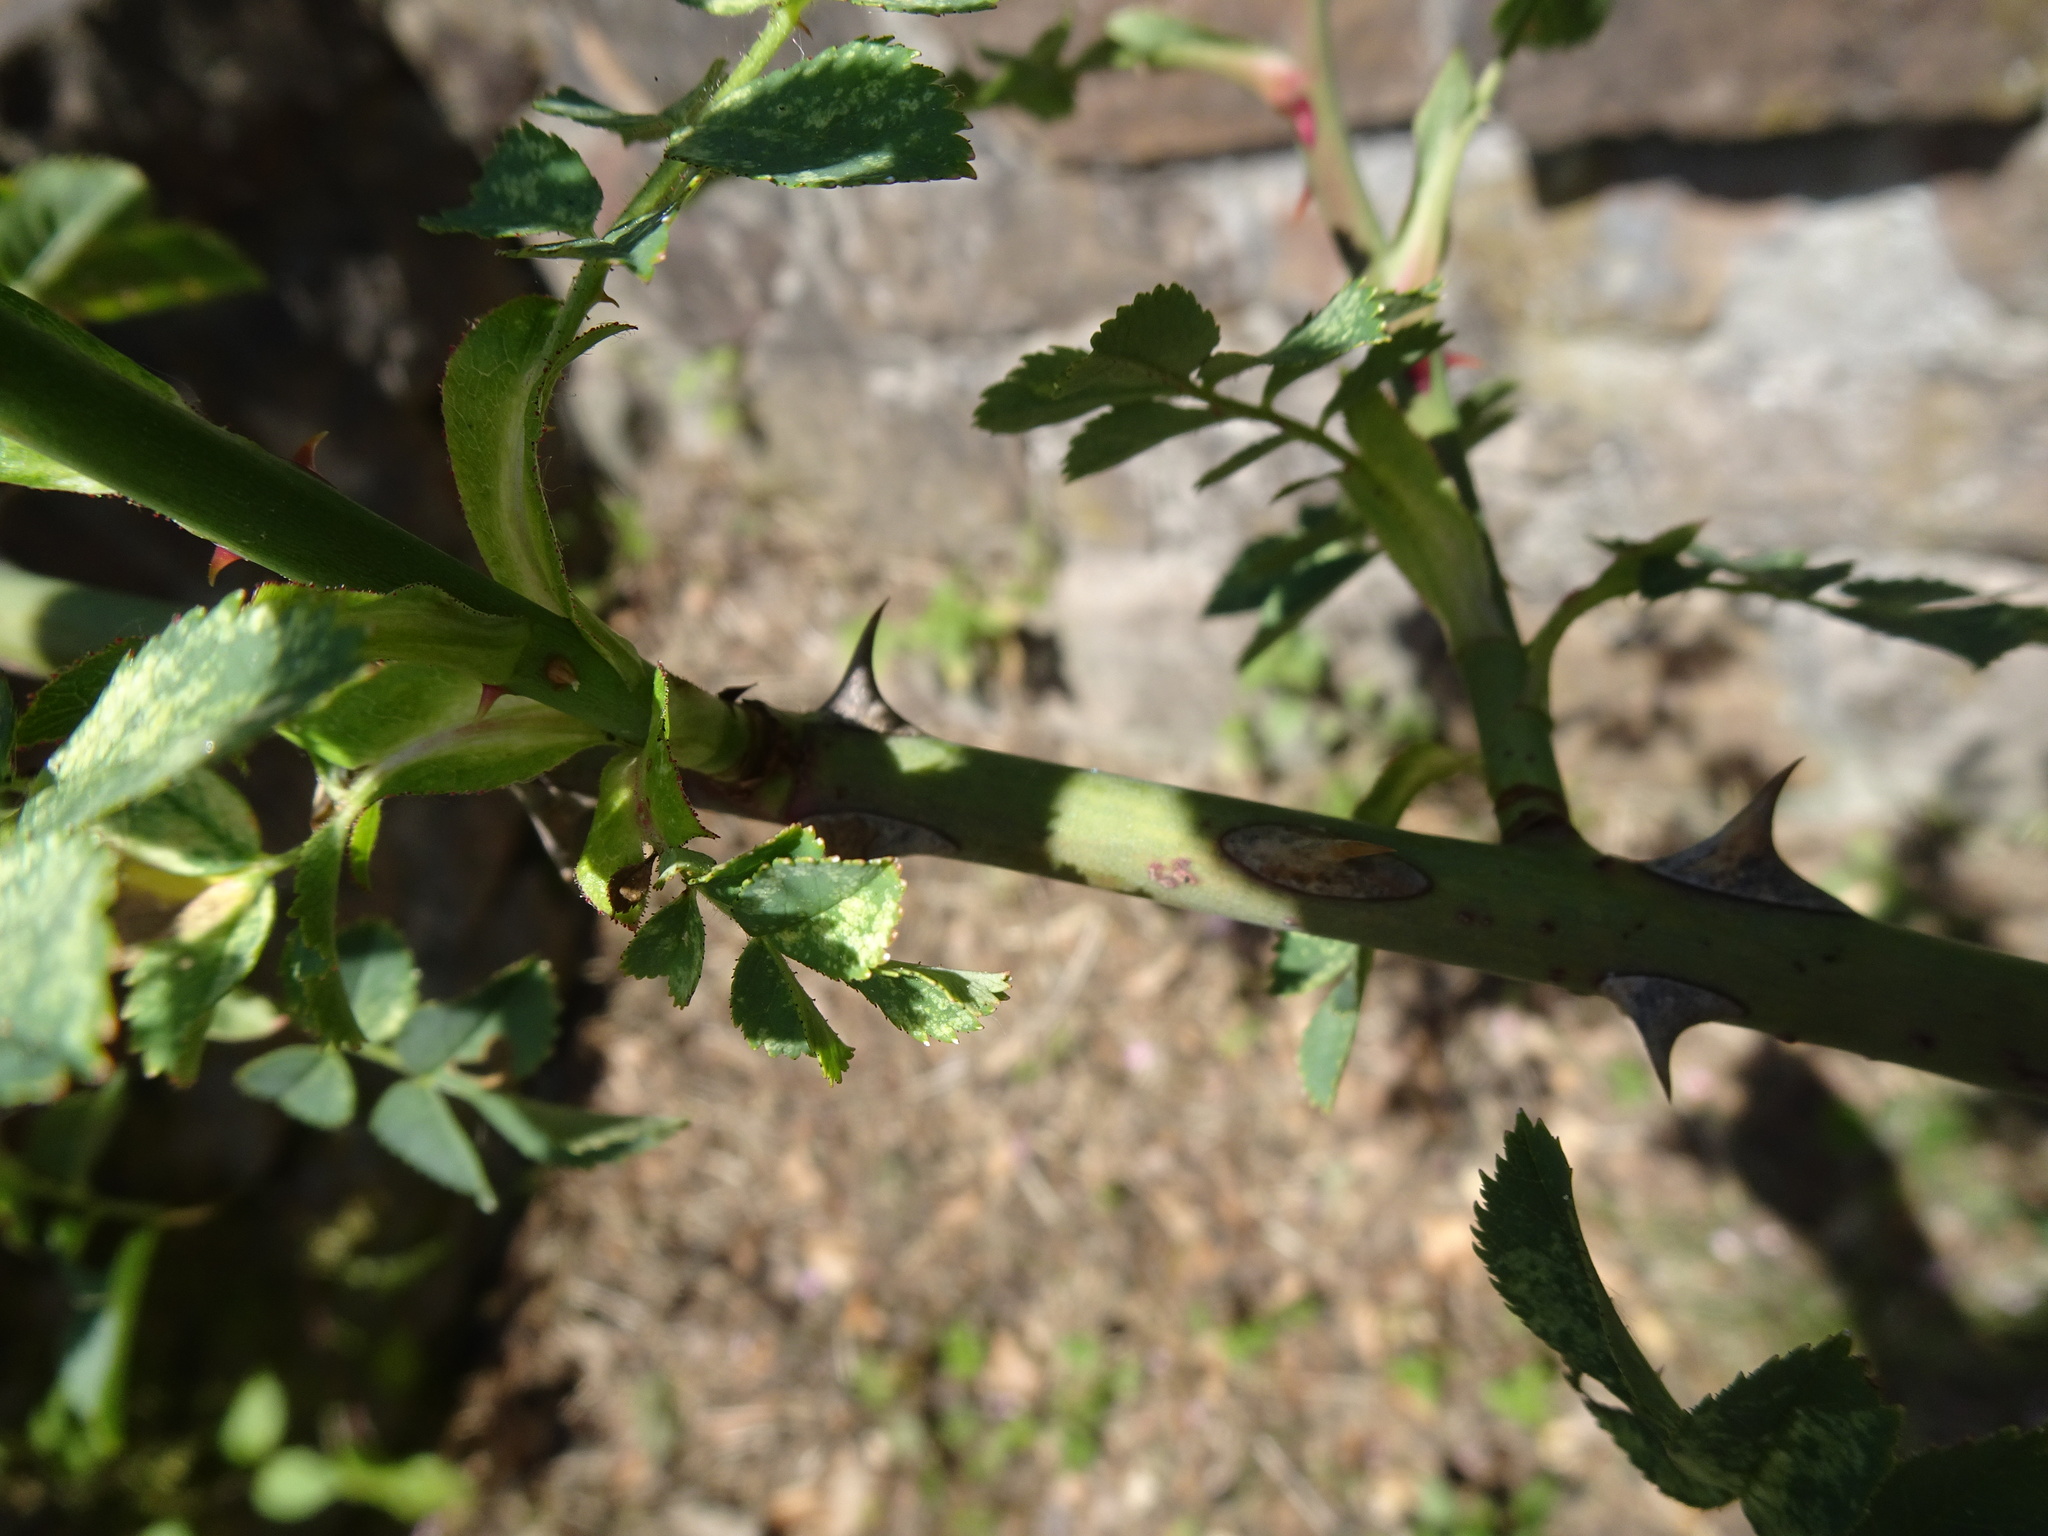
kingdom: Plantae
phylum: Tracheophyta
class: Magnoliopsida
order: Rosales
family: Rosaceae
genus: Rosa
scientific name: Rosa canina
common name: Dog rose
